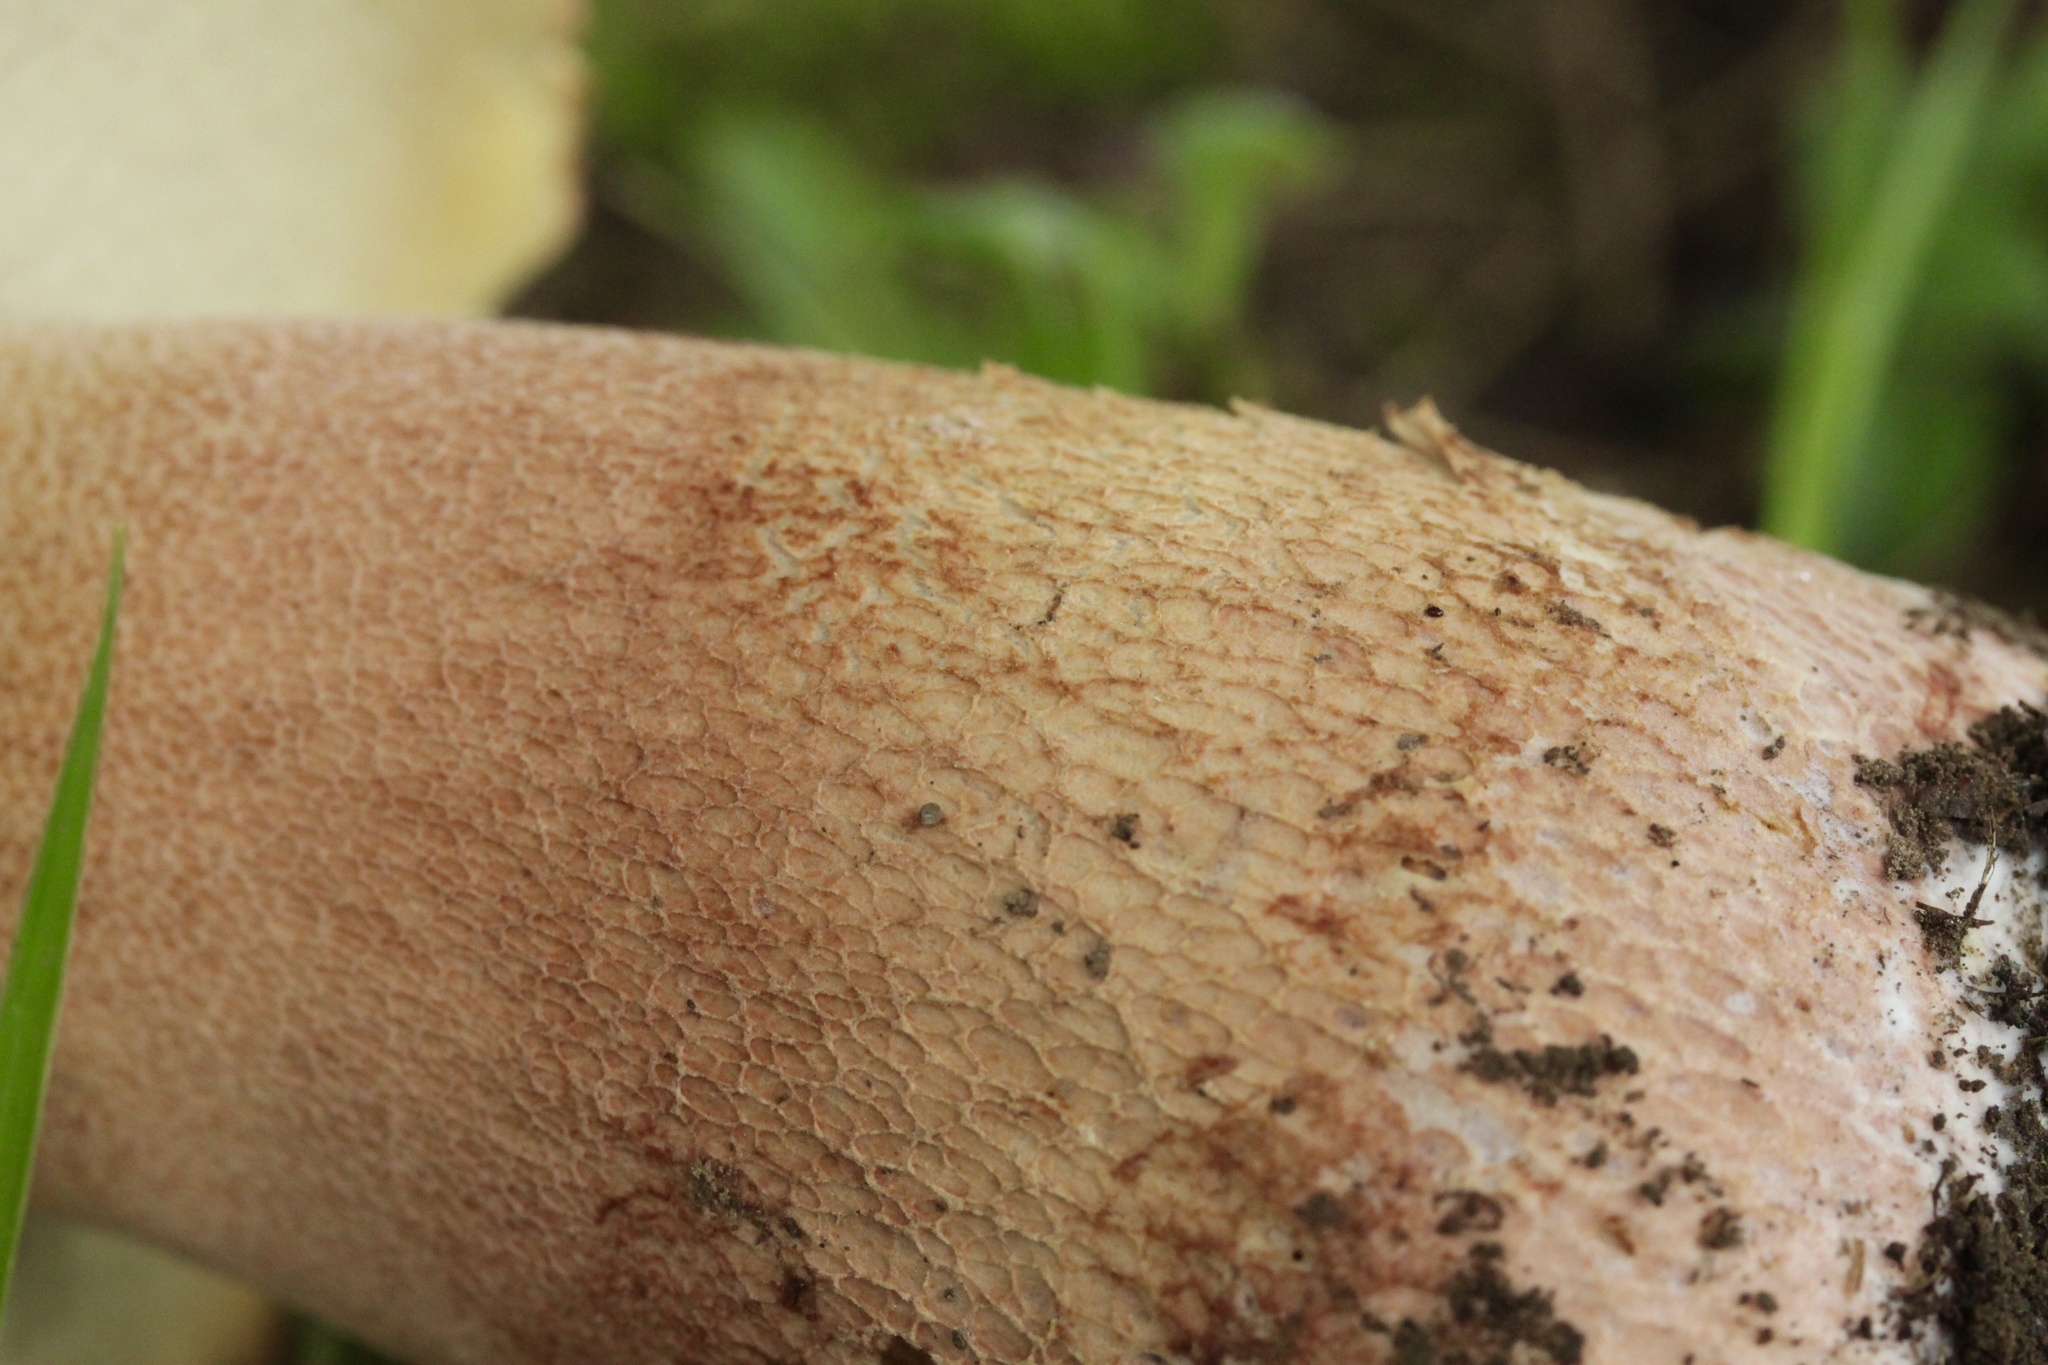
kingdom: Fungi
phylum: Basidiomycota
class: Agaricomycetes
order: Boletales
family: Boletaceae
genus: Boletus
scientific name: Boletus subcaerulescens
